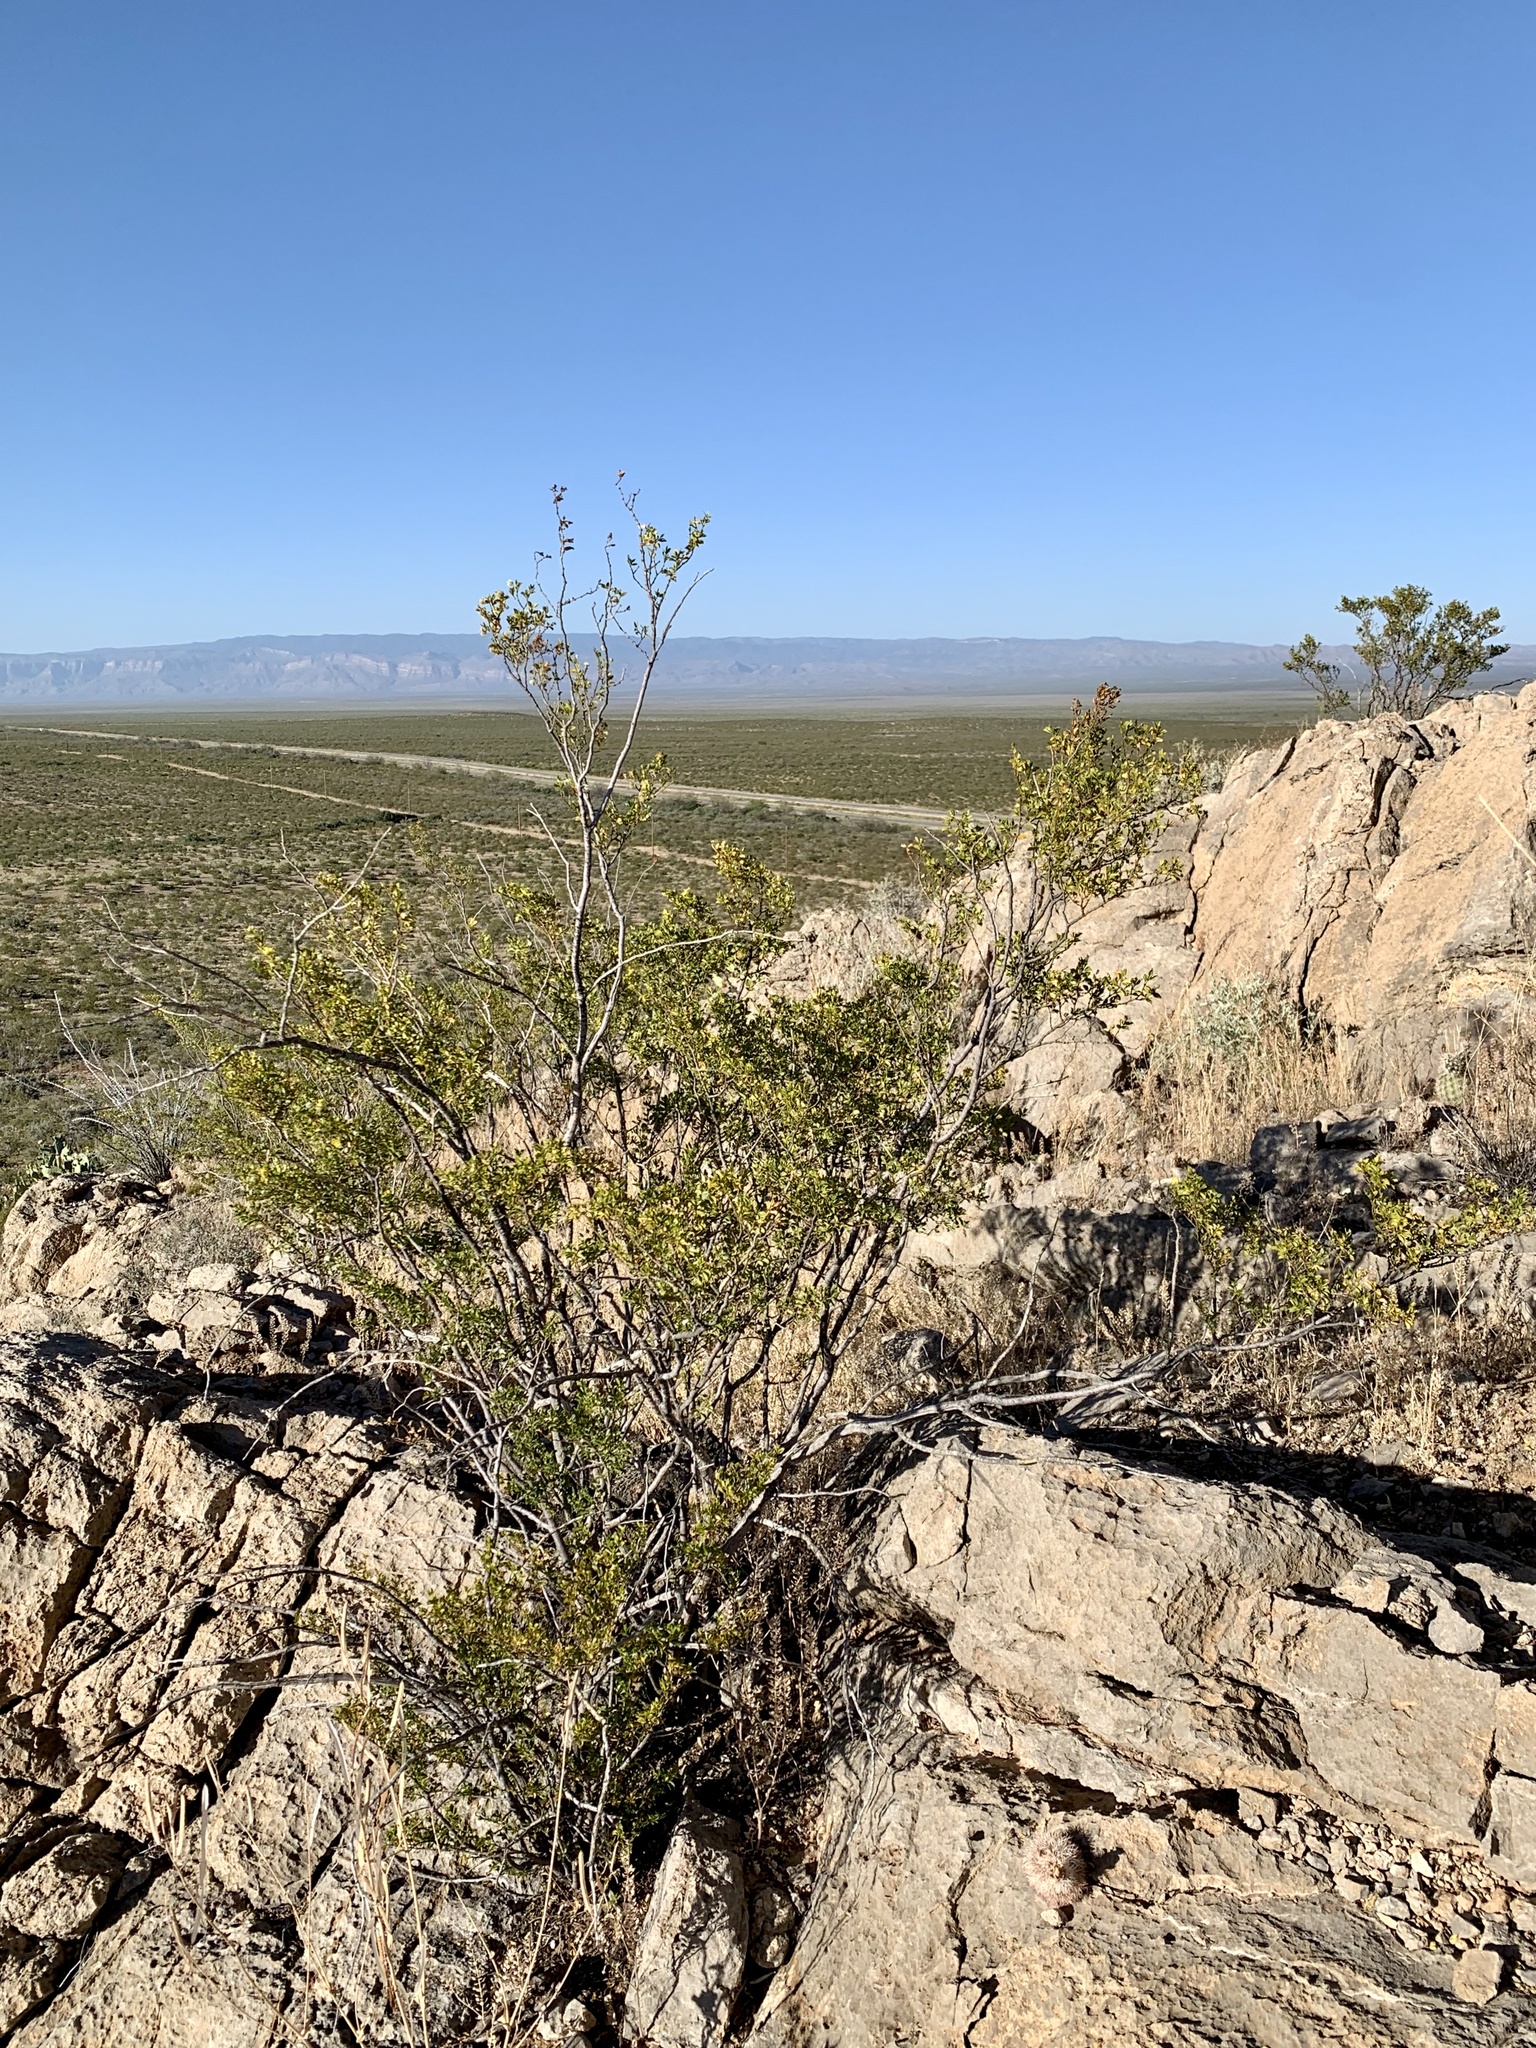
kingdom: Plantae
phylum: Tracheophyta
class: Magnoliopsida
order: Zygophyllales
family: Zygophyllaceae
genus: Larrea
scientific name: Larrea tridentata
